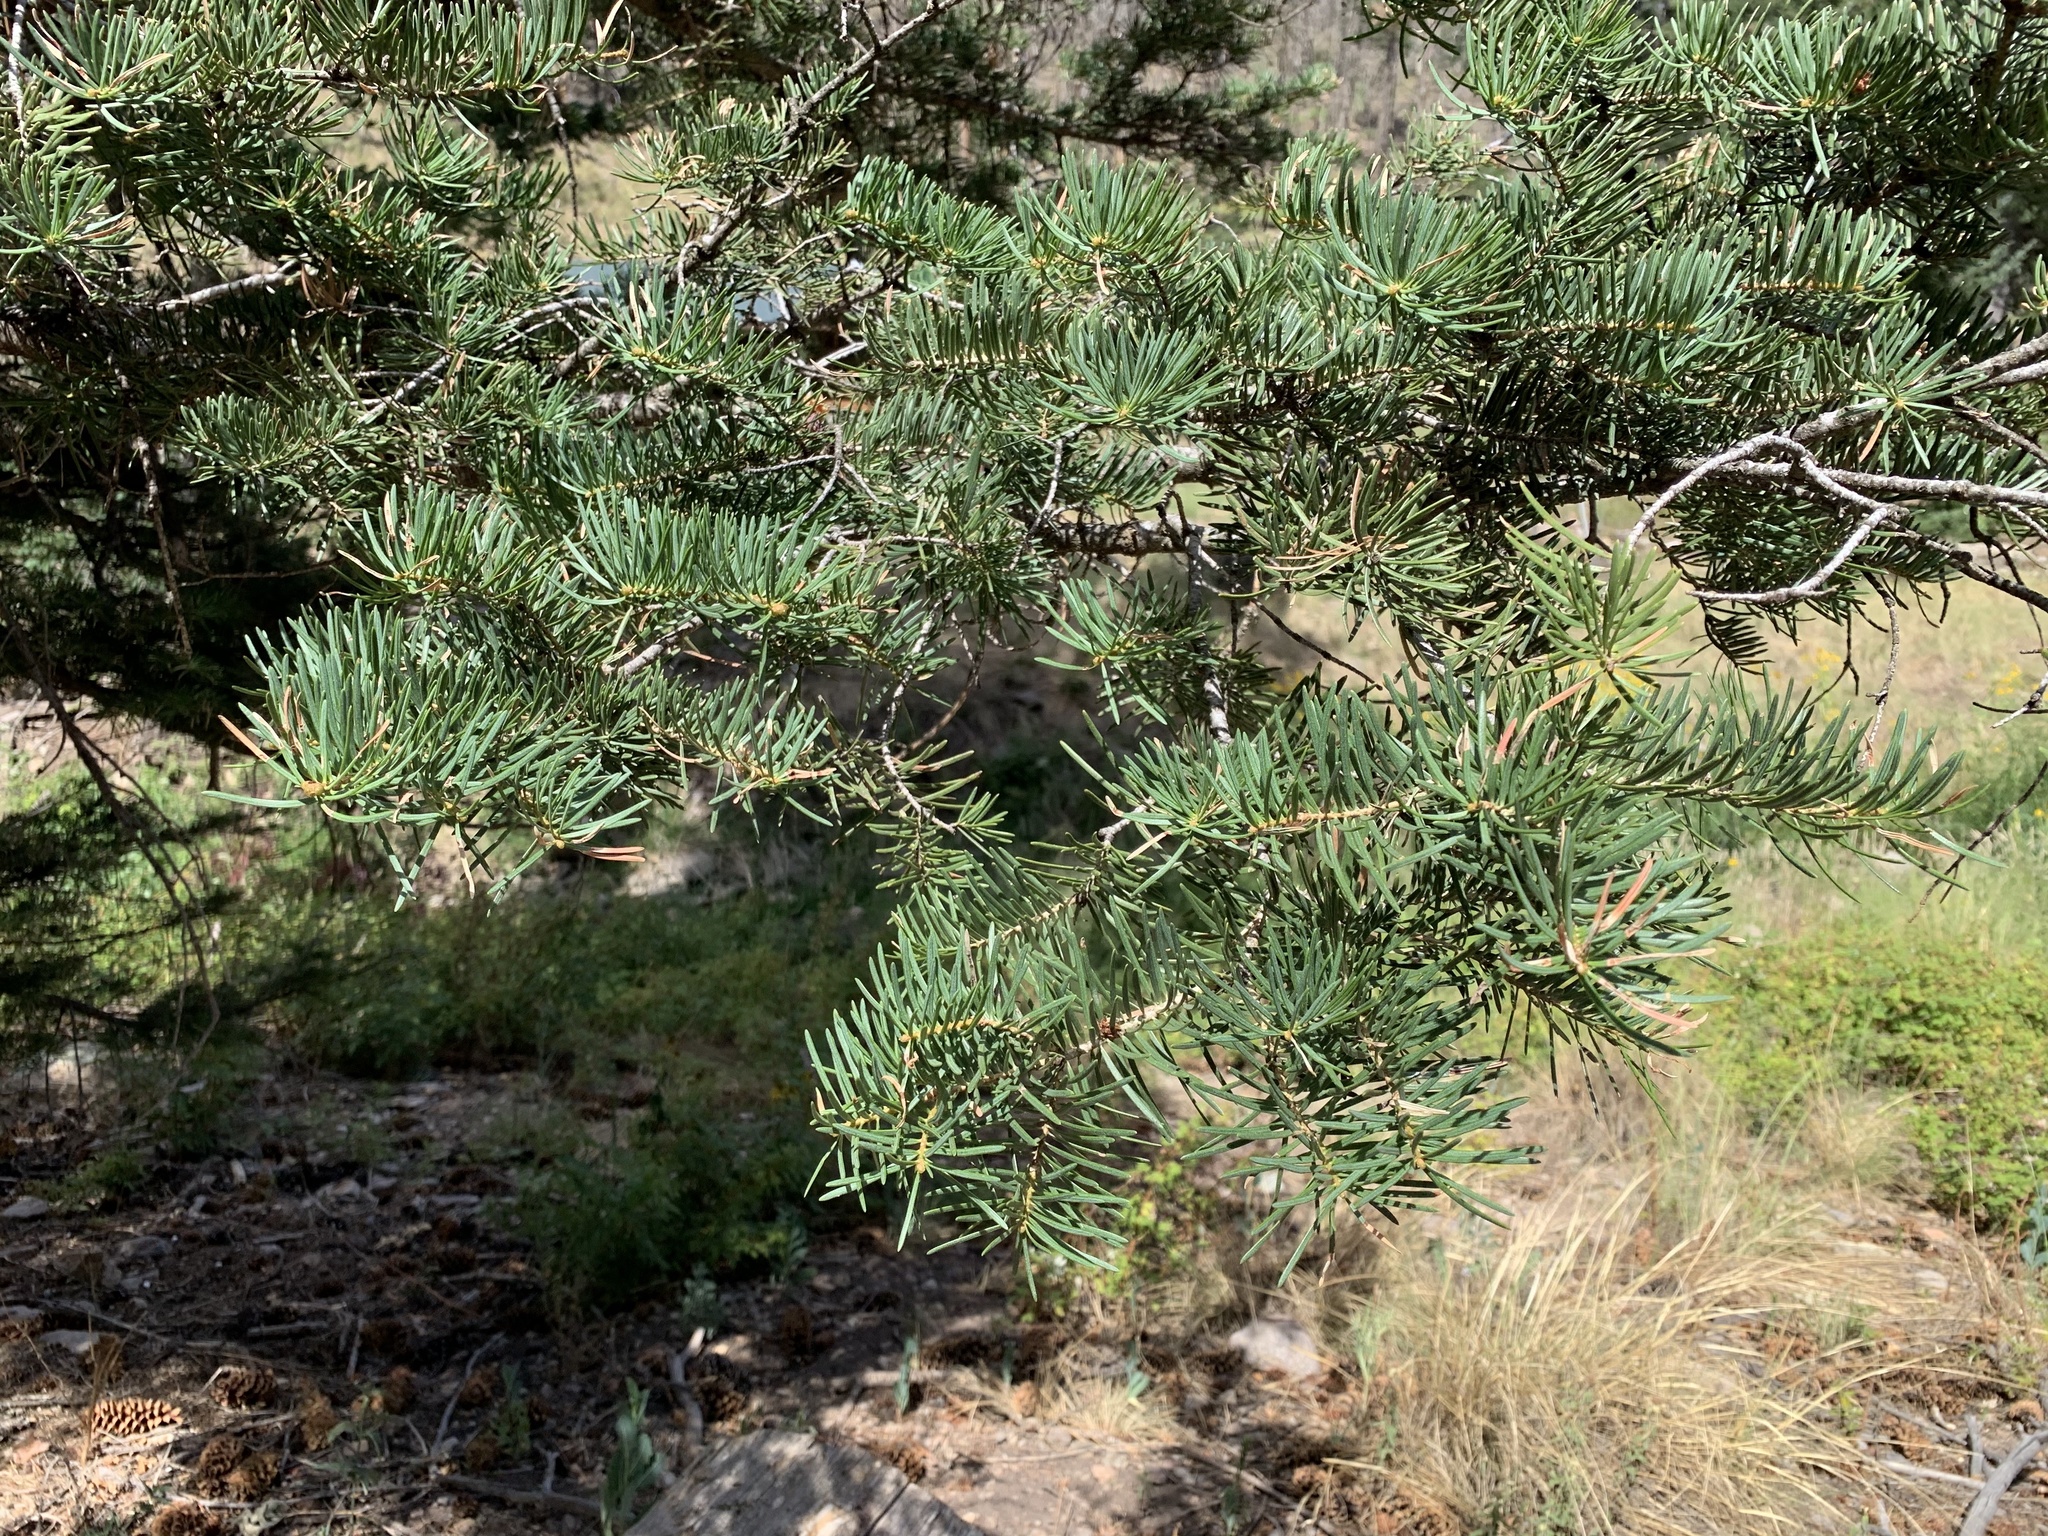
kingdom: Plantae
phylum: Tracheophyta
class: Pinopsida
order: Pinales
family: Pinaceae
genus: Abies
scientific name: Abies concolor
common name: Colorado fir
